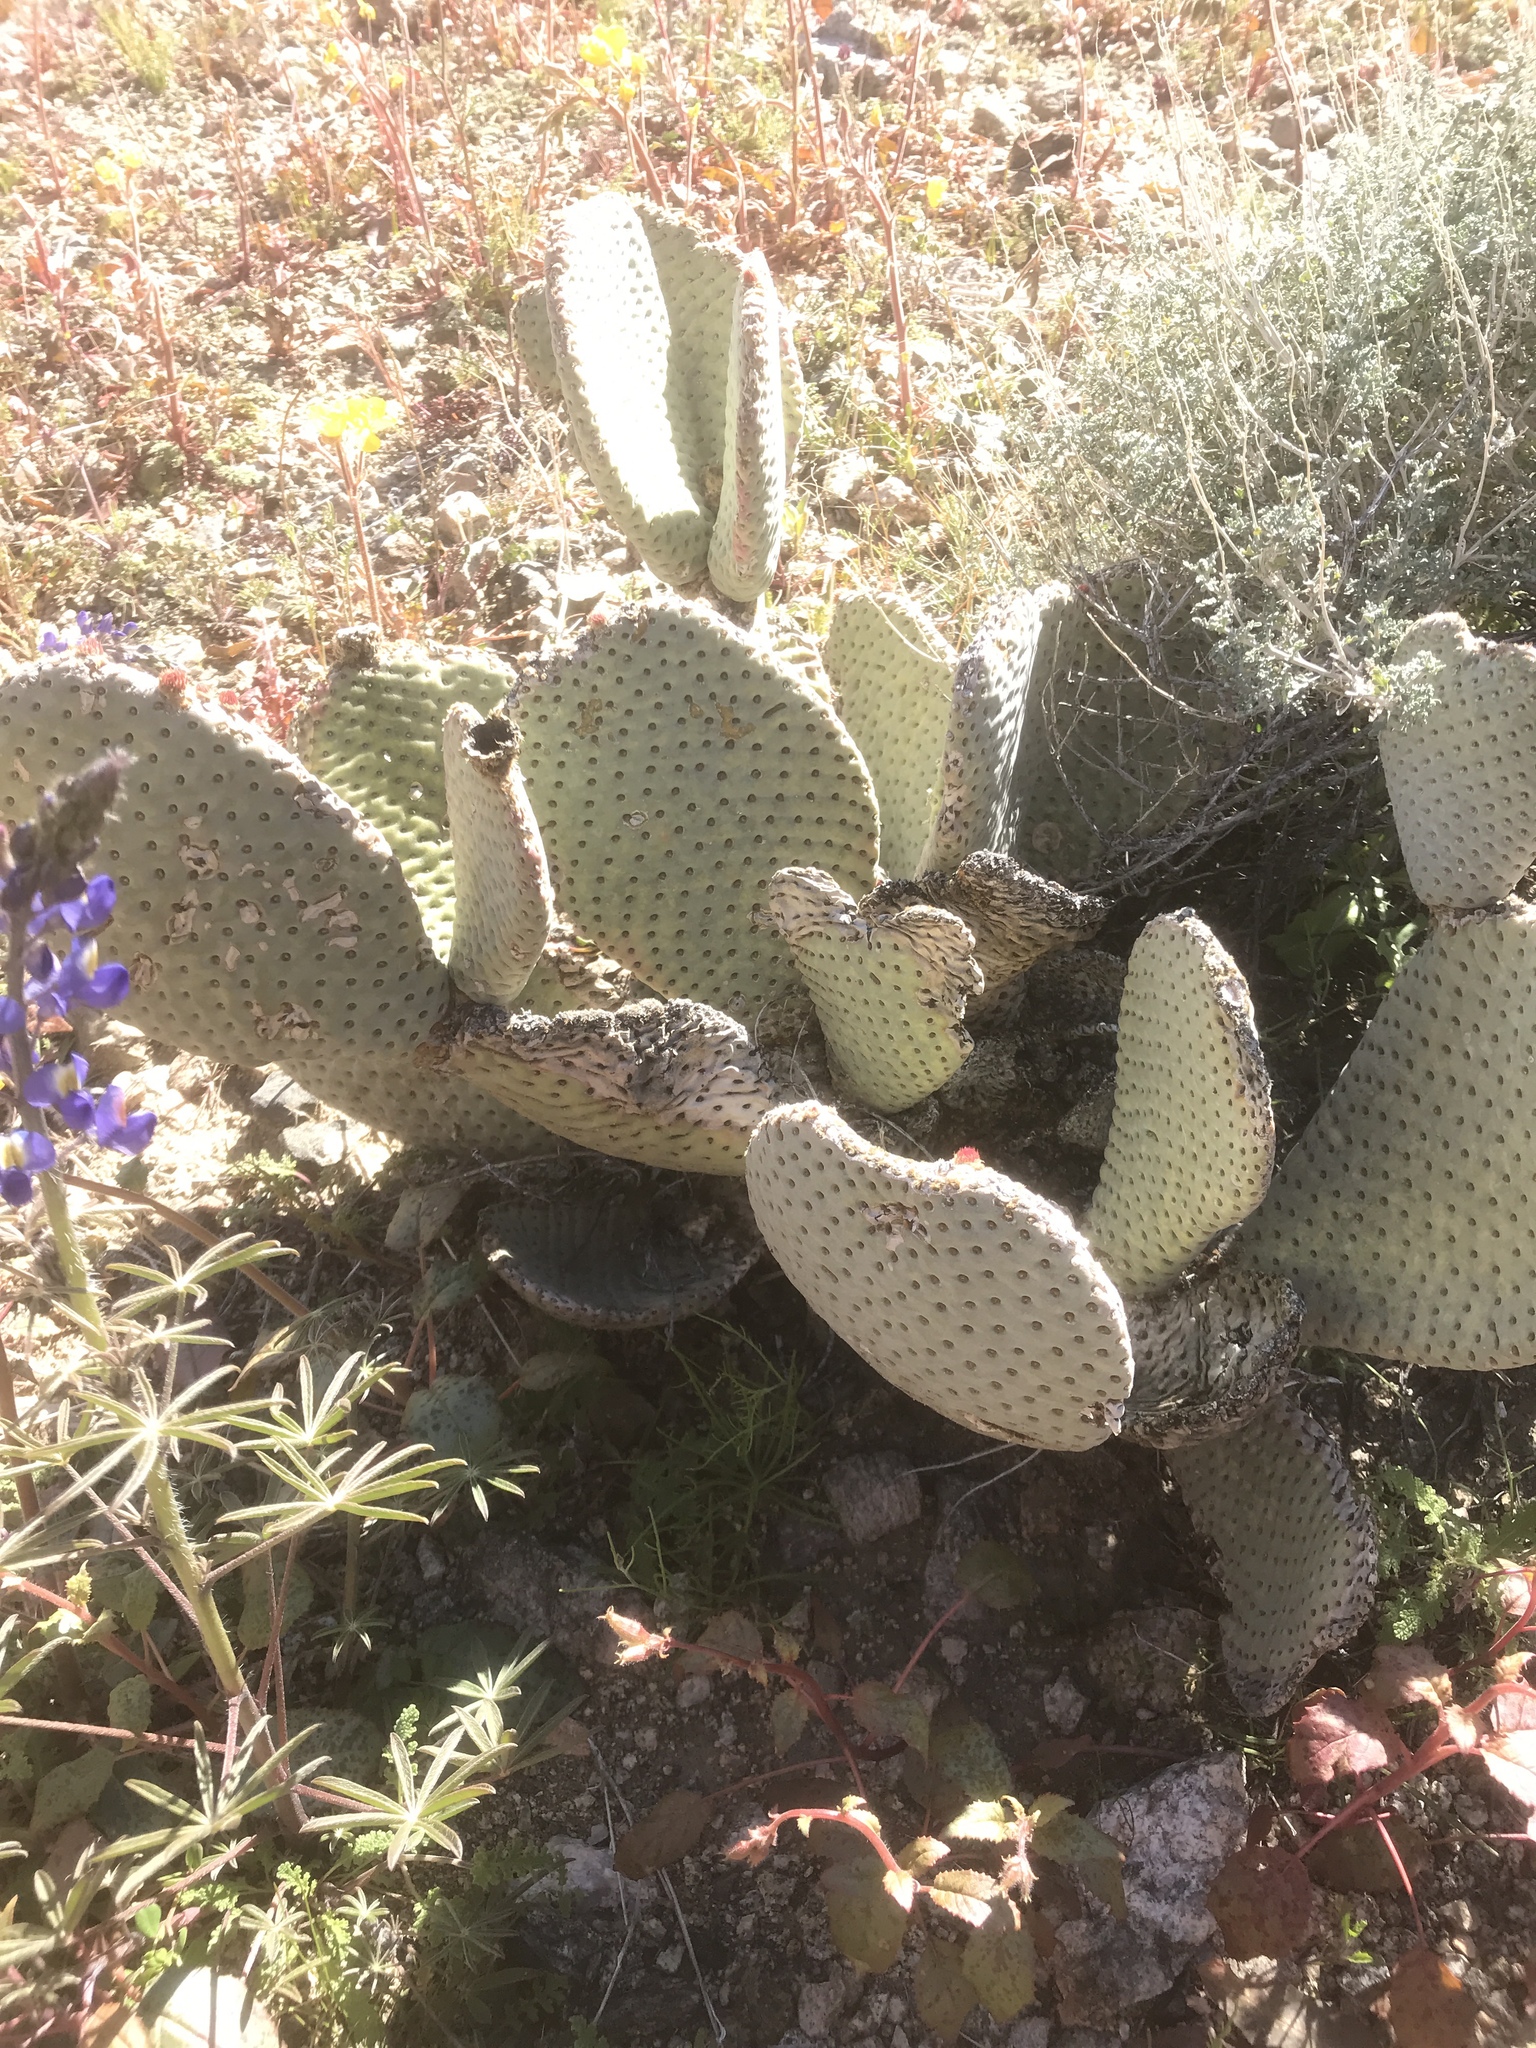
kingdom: Plantae
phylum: Tracheophyta
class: Magnoliopsida
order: Caryophyllales
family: Cactaceae
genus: Opuntia
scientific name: Opuntia basilaris
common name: Beavertail prickly-pear
